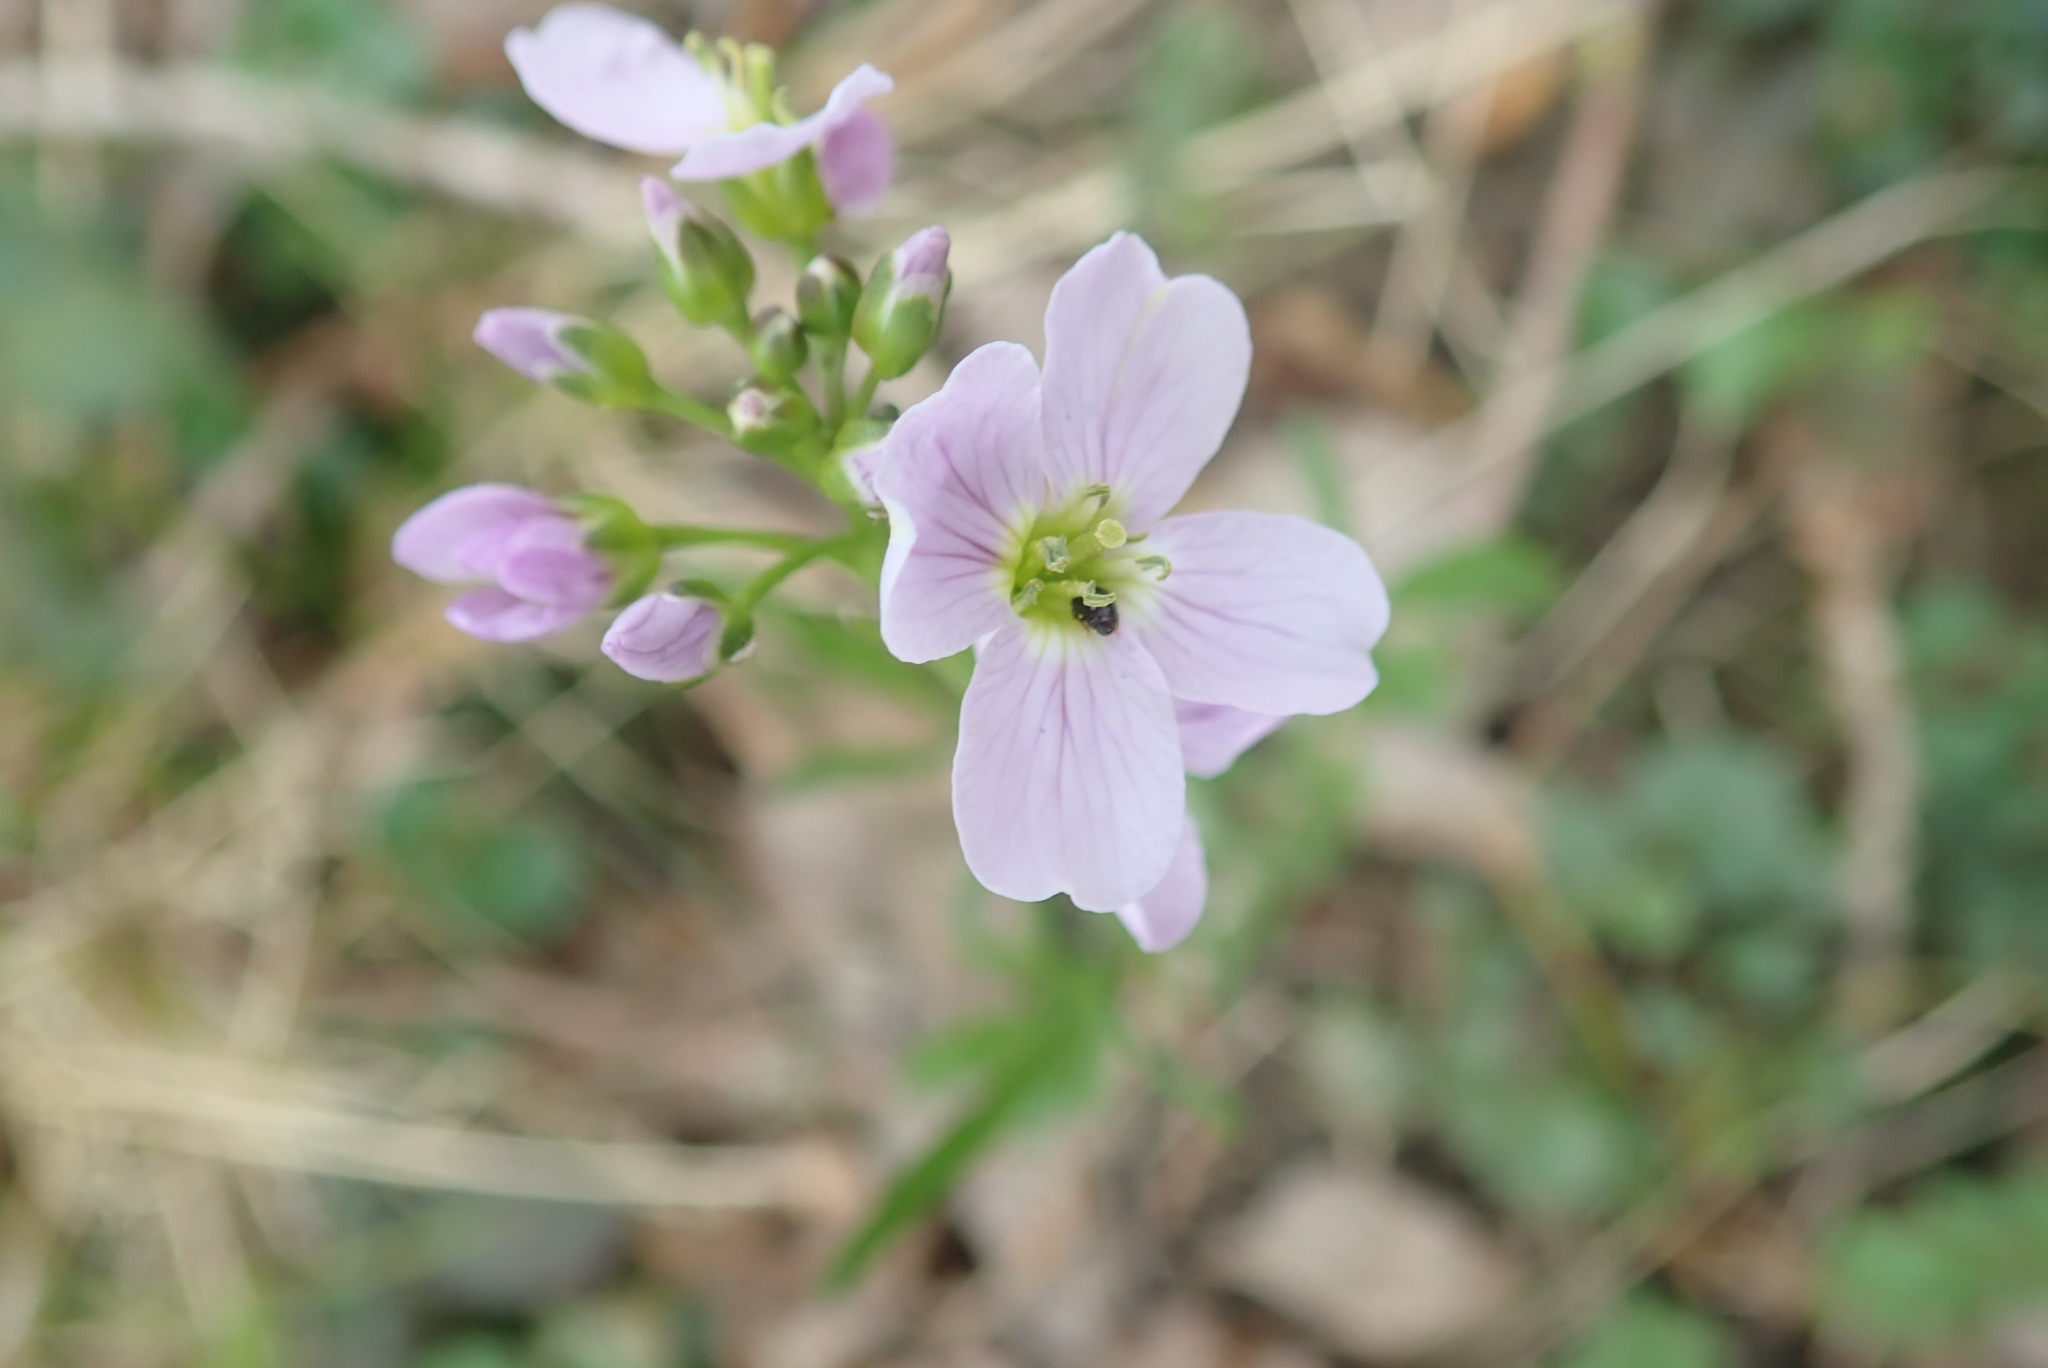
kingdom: Plantae
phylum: Tracheophyta
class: Magnoliopsida
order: Brassicales
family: Brassicaceae
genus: Cardamine
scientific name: Cardamine pratensis
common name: Cuckoo flower
